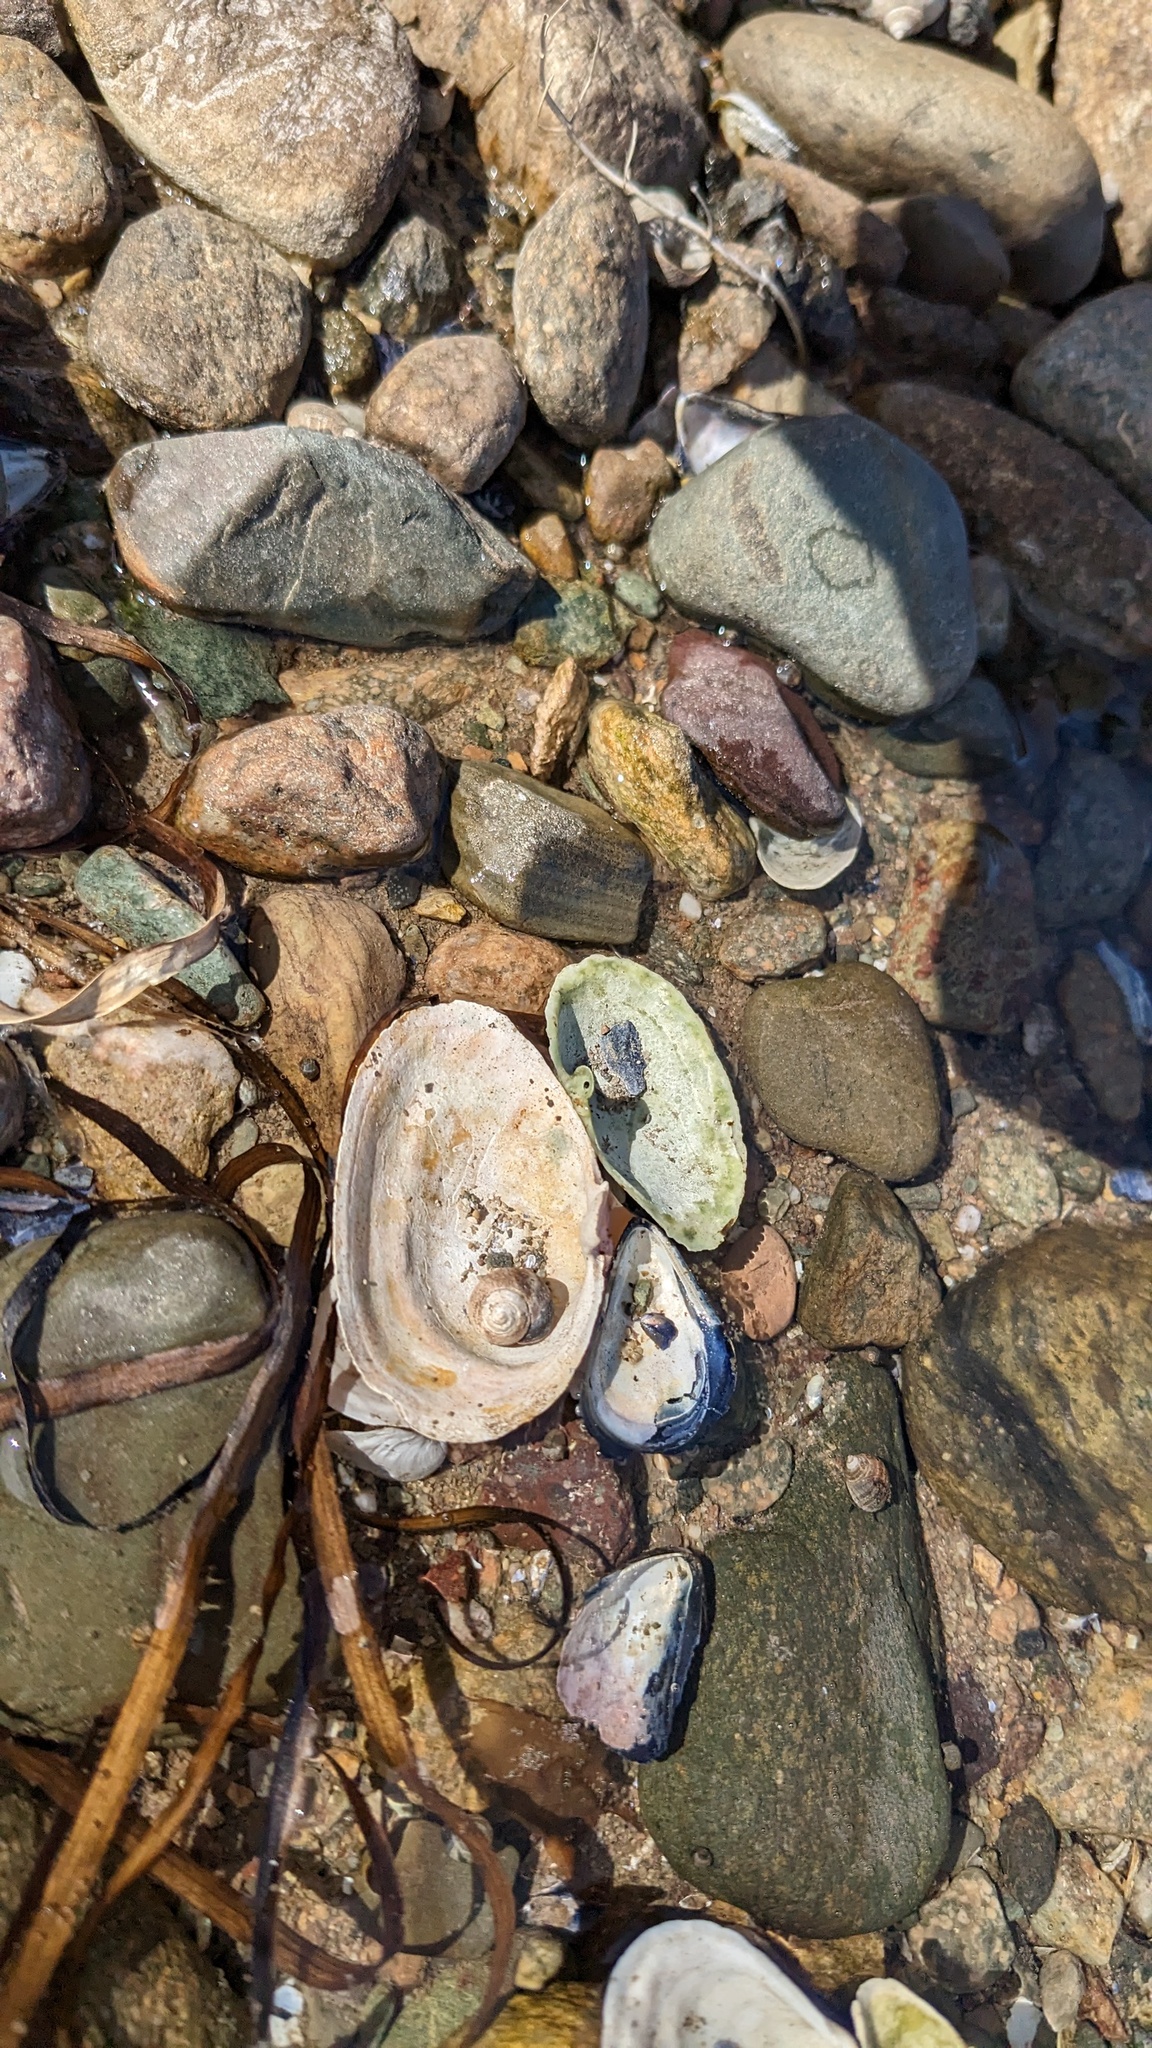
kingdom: Animalia
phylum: Mollusca
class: Bivalvia
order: Myida
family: Myidae
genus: Mya
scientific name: Mya arenaria
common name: Soft-shelled clam
